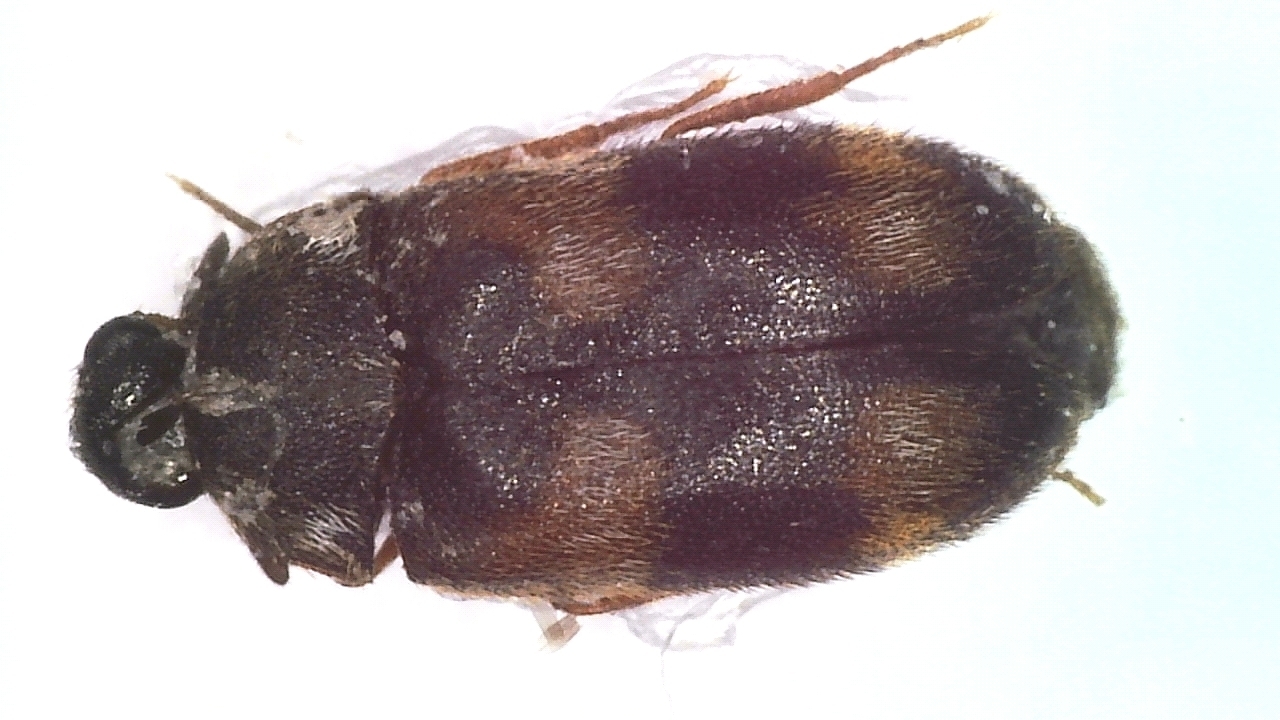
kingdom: Animalia
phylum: Arthropoda
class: Insecta
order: Coleoptera
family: Dermestidae
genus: Megatoma
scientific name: Megatoma tianschanica
